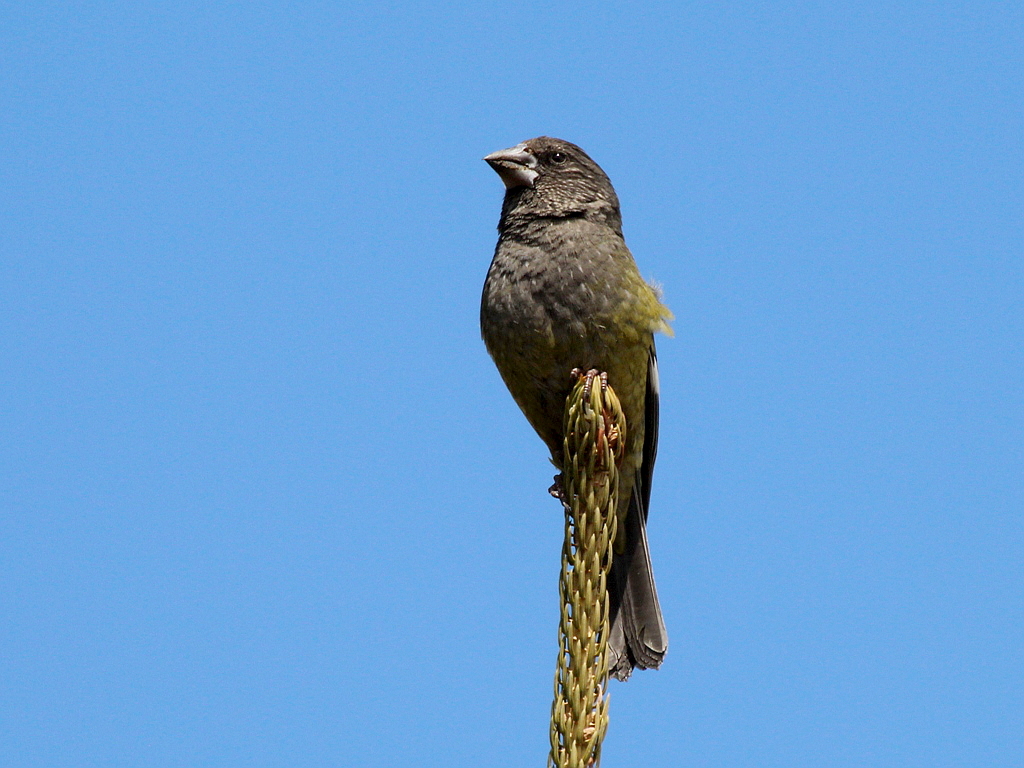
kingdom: Animalia
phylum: Chordata
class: Aves
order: Passeriformes
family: Fringillidae
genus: Mycerobas
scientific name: Mycerobas carnipes
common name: White-winged grosbeak
